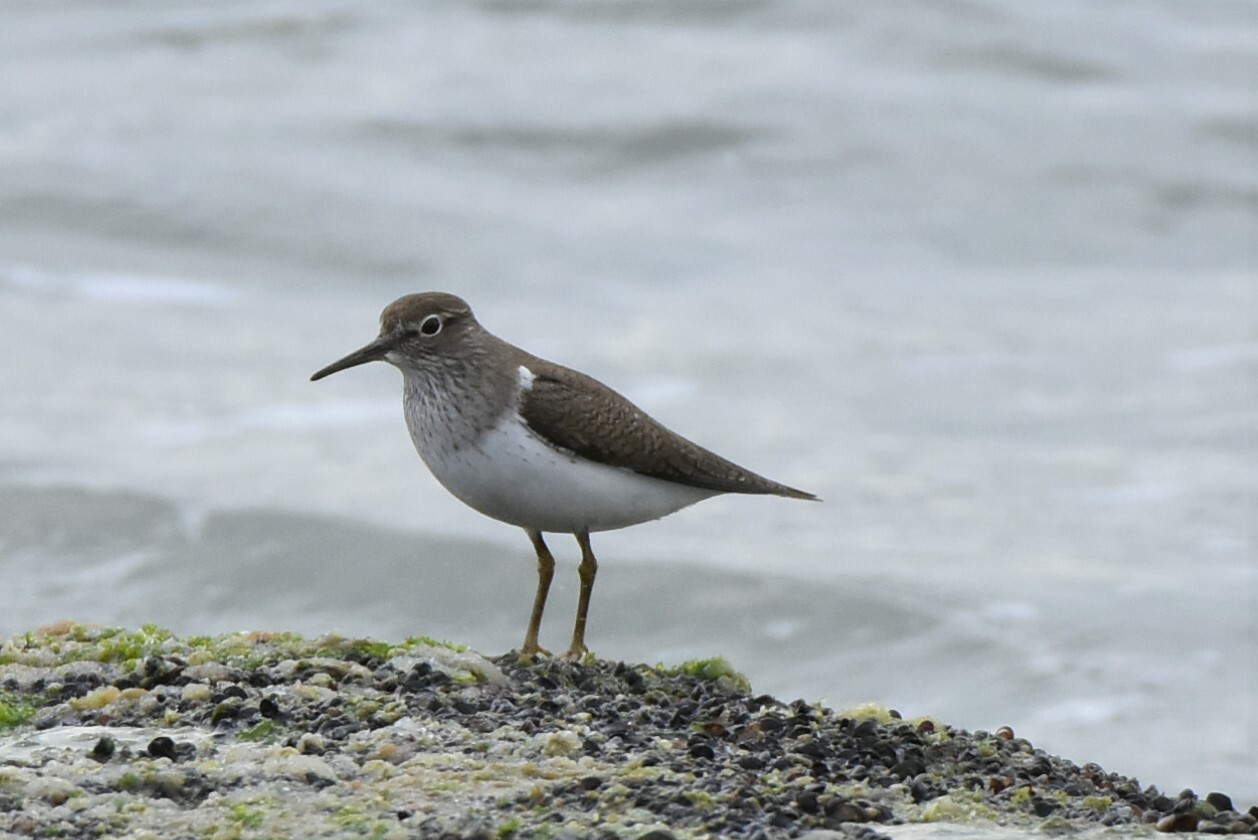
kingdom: Animalia
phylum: Chordata
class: Aves
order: Charadriiformes
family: Scolopacidae
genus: Actitis
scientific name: Actitis hypoleucos
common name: Common sandpiper
